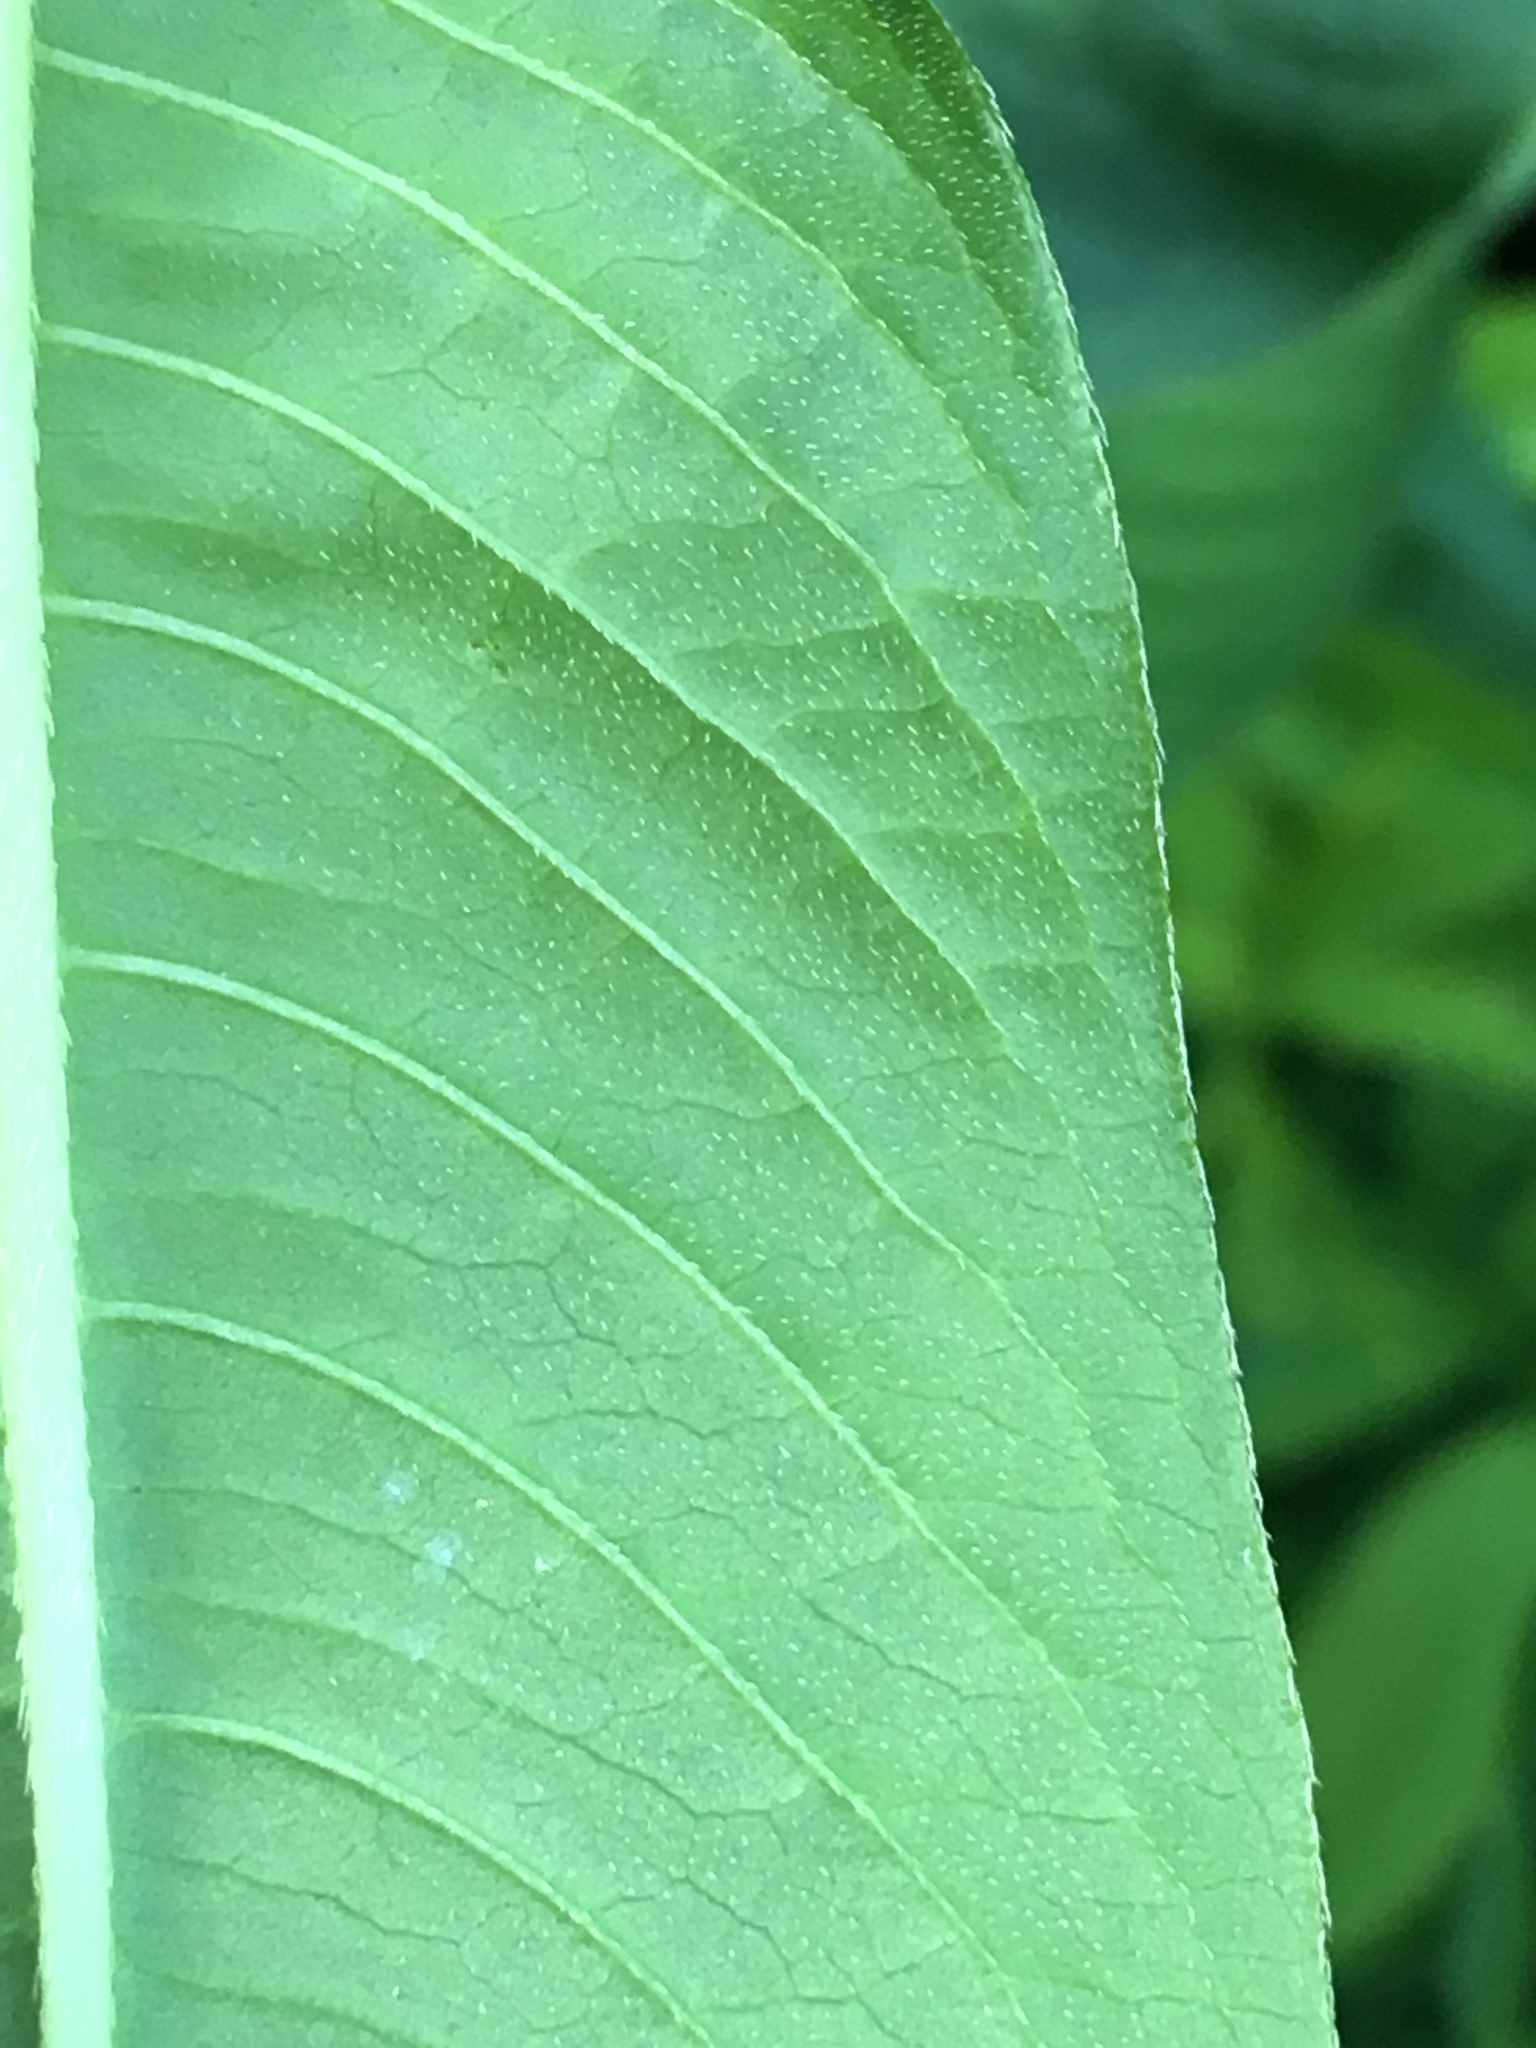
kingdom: Plantae
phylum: Tracheophyta
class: Magnoliopsida
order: Caryophyllales
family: Polygonaceae
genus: Persicaria
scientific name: Persicaria extremiorientalis
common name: Far-eastern smartweed
